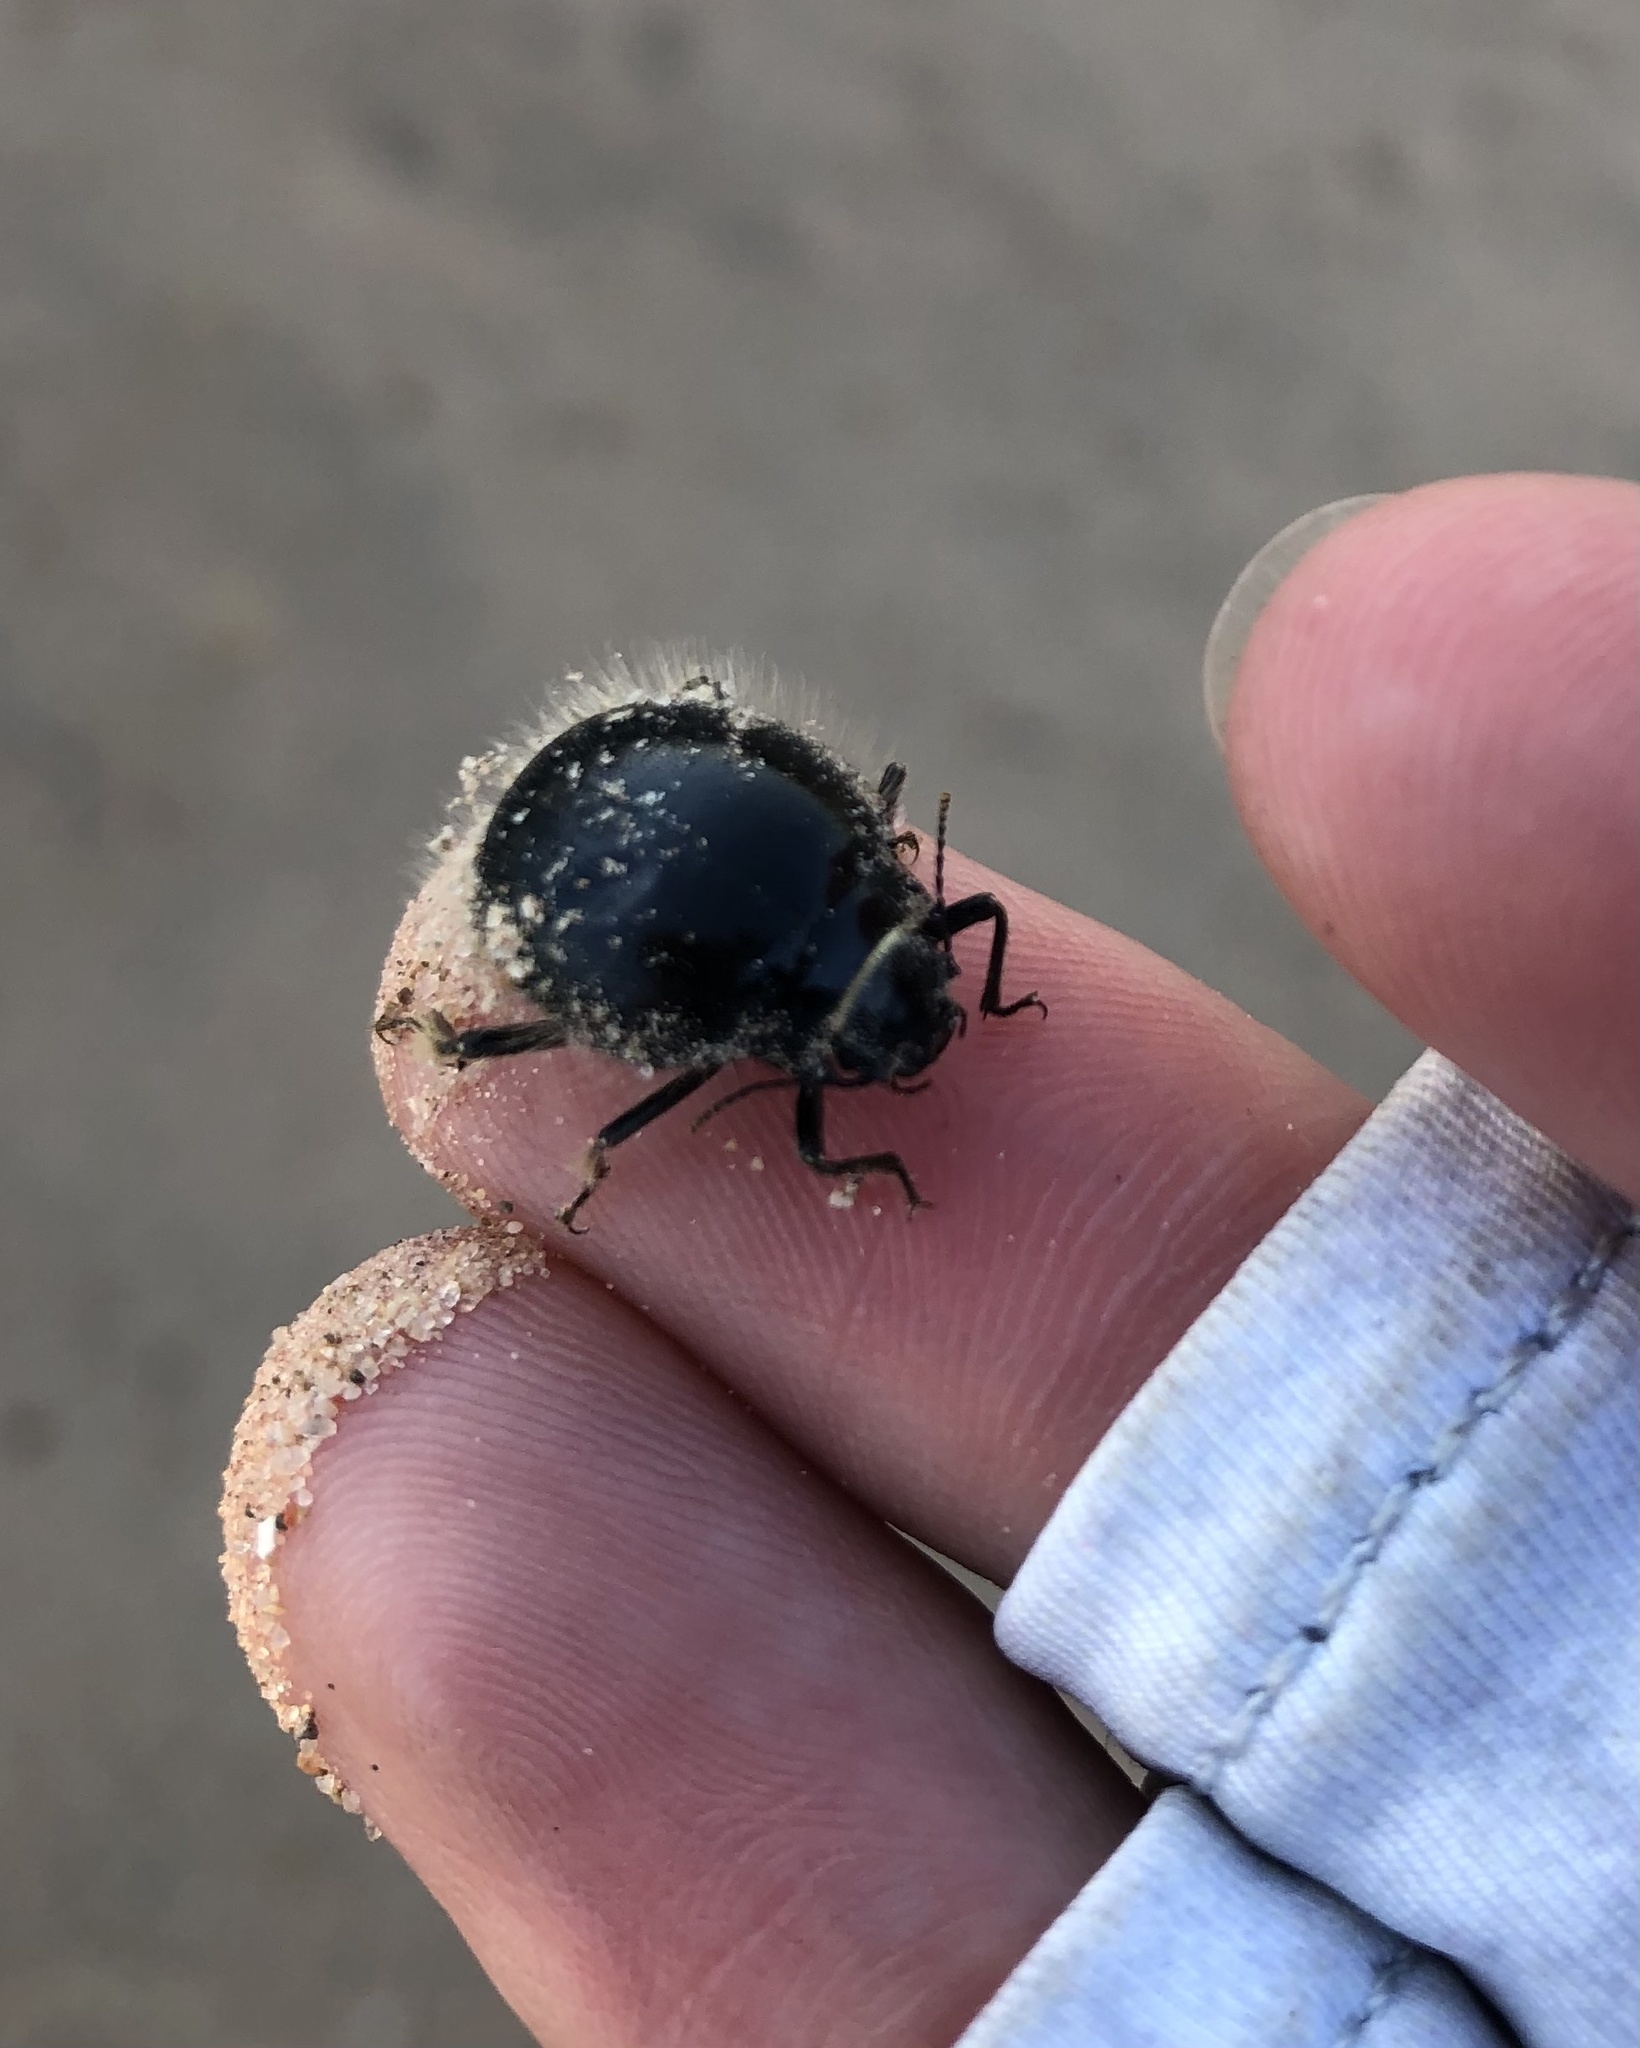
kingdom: Animalia
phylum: Arthropoda
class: Insecta
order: Coleoptera
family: Tenebrionidae
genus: Edrotes
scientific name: Edrotes ventricosus
